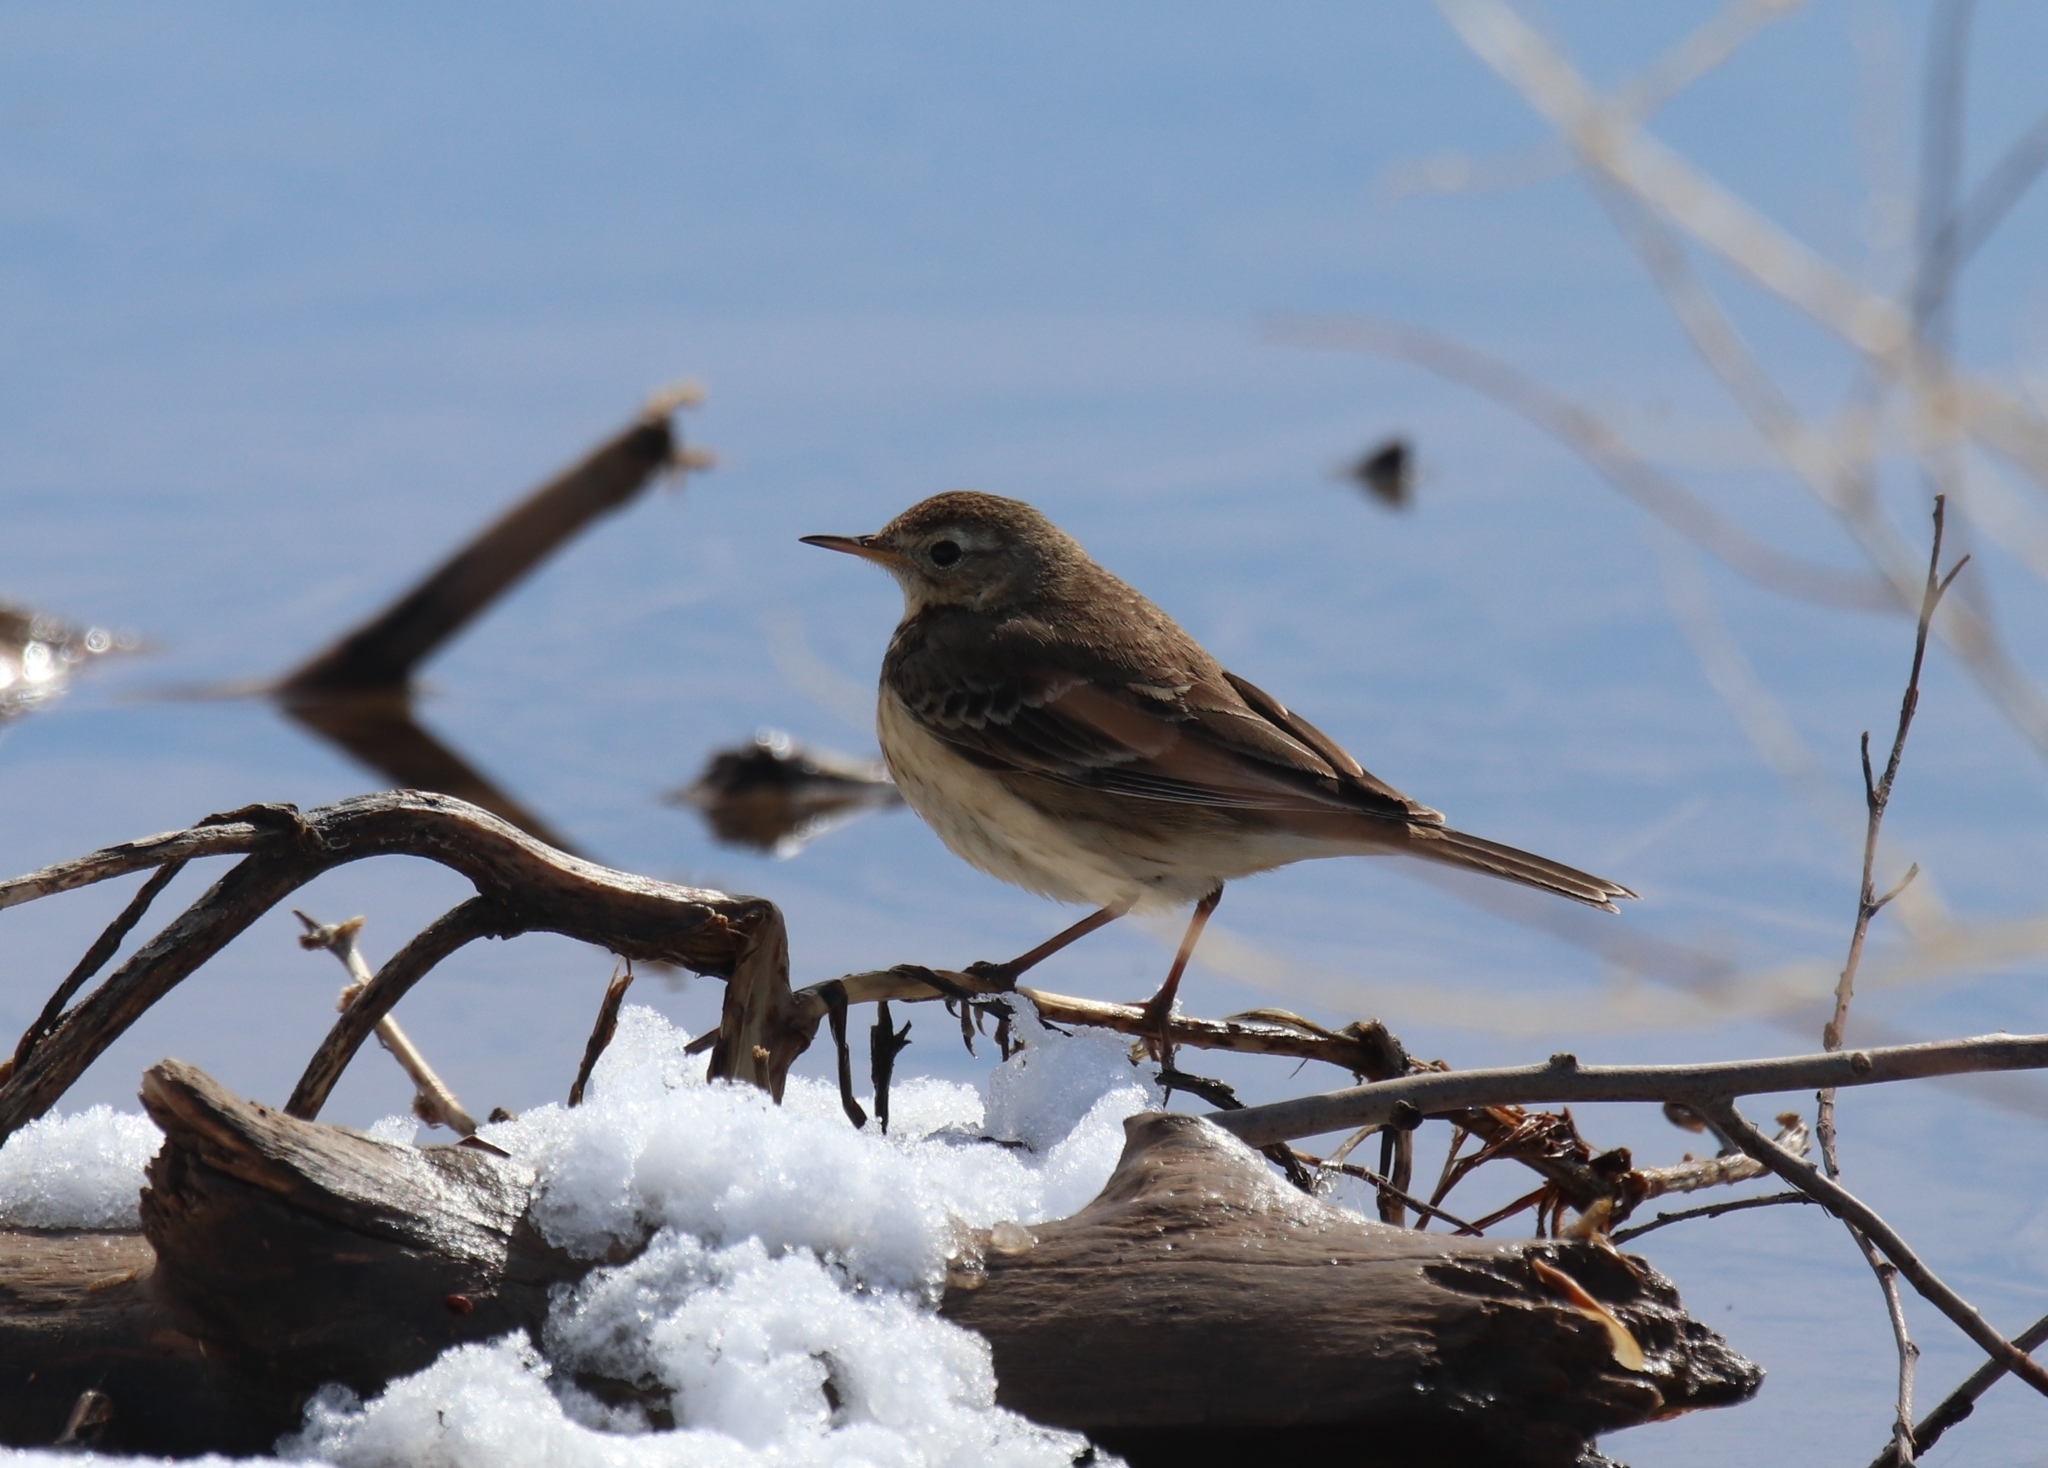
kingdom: Animalia
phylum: Chordata
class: Aves
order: Passeriformes
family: Motacillidae
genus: Anthus
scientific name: Anthus rubescens
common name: Buff-bellied pipit
